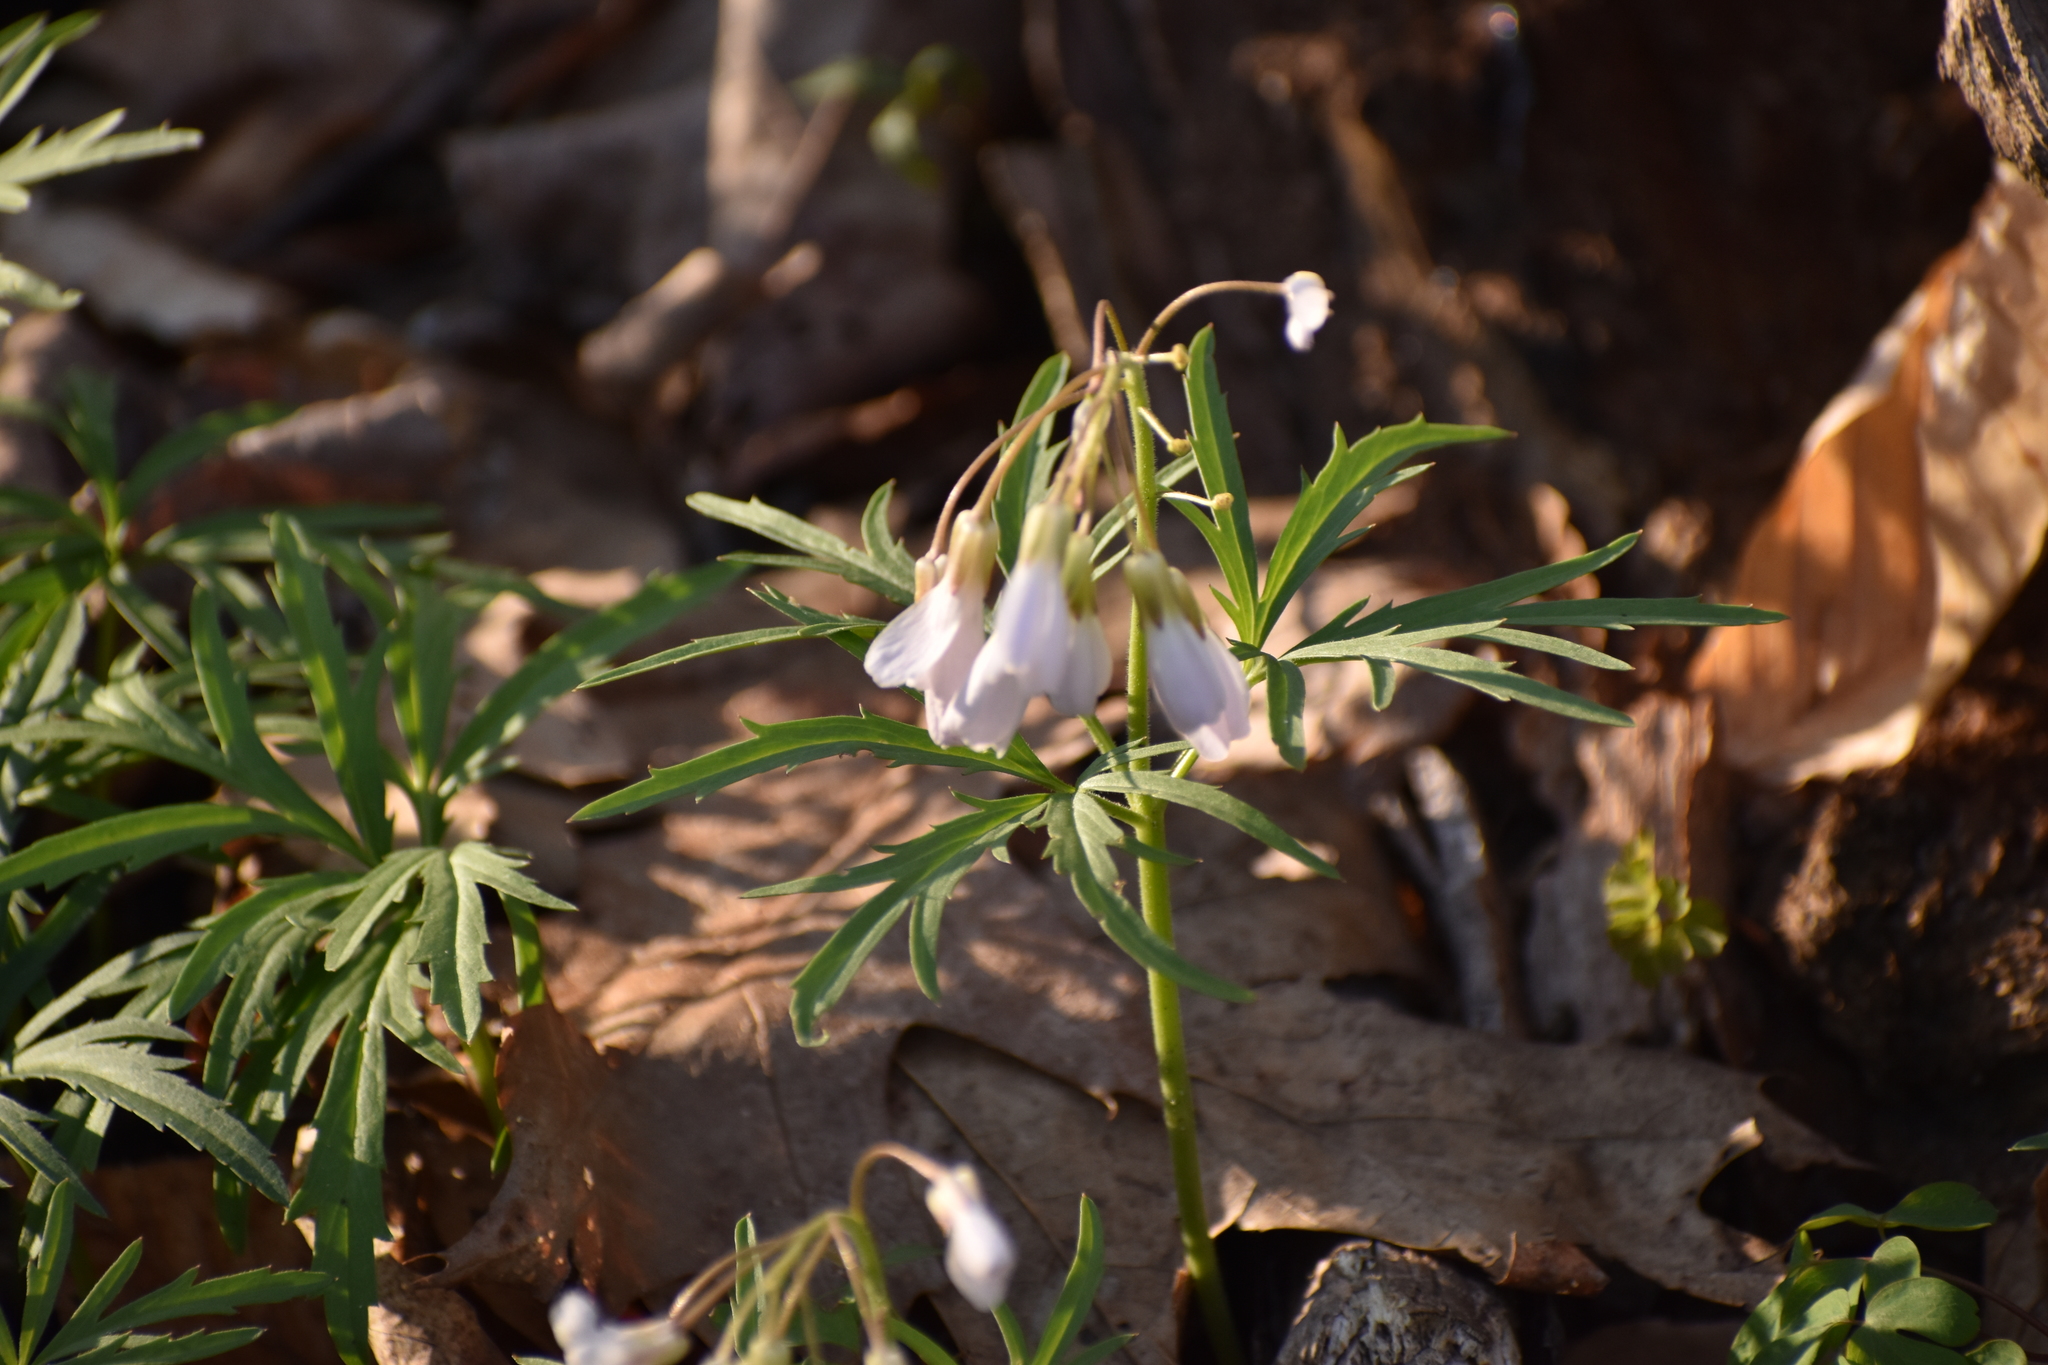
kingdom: Plantae
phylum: Tracheophyta
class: Magnoliopsida
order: Brassicales
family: Brassicaceae
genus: Cardamine
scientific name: Cardamine concatenata
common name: Cut-leaf toothcup
